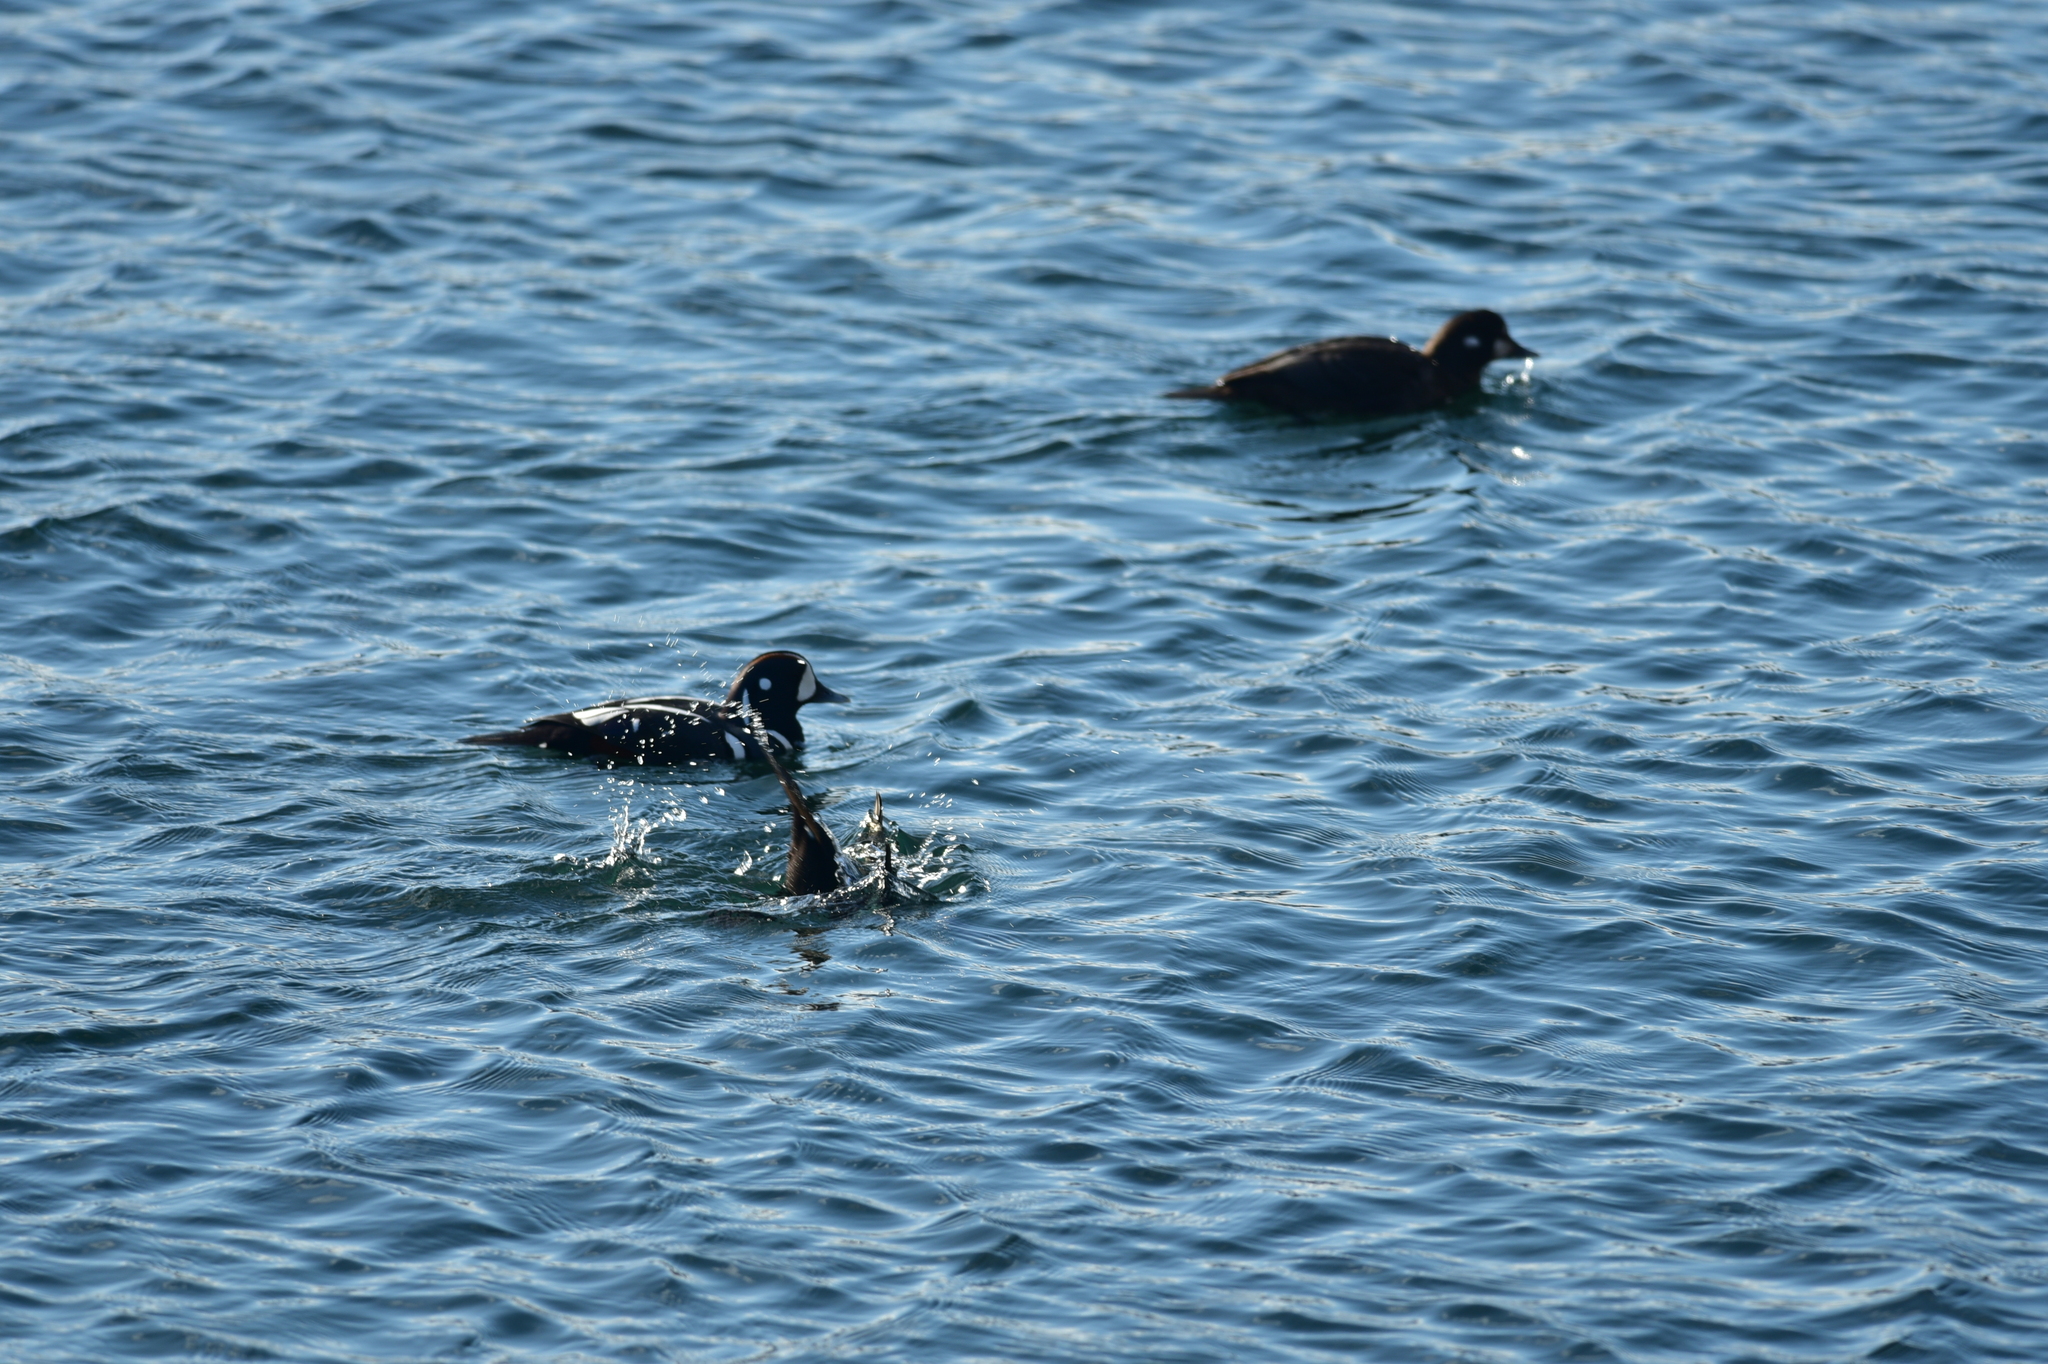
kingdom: Animalia
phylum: Chordata
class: Aves
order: Anseriformes
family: Anatidae
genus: Histrionicus
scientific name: Histrionicus histrionicus
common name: Harlequin duck
